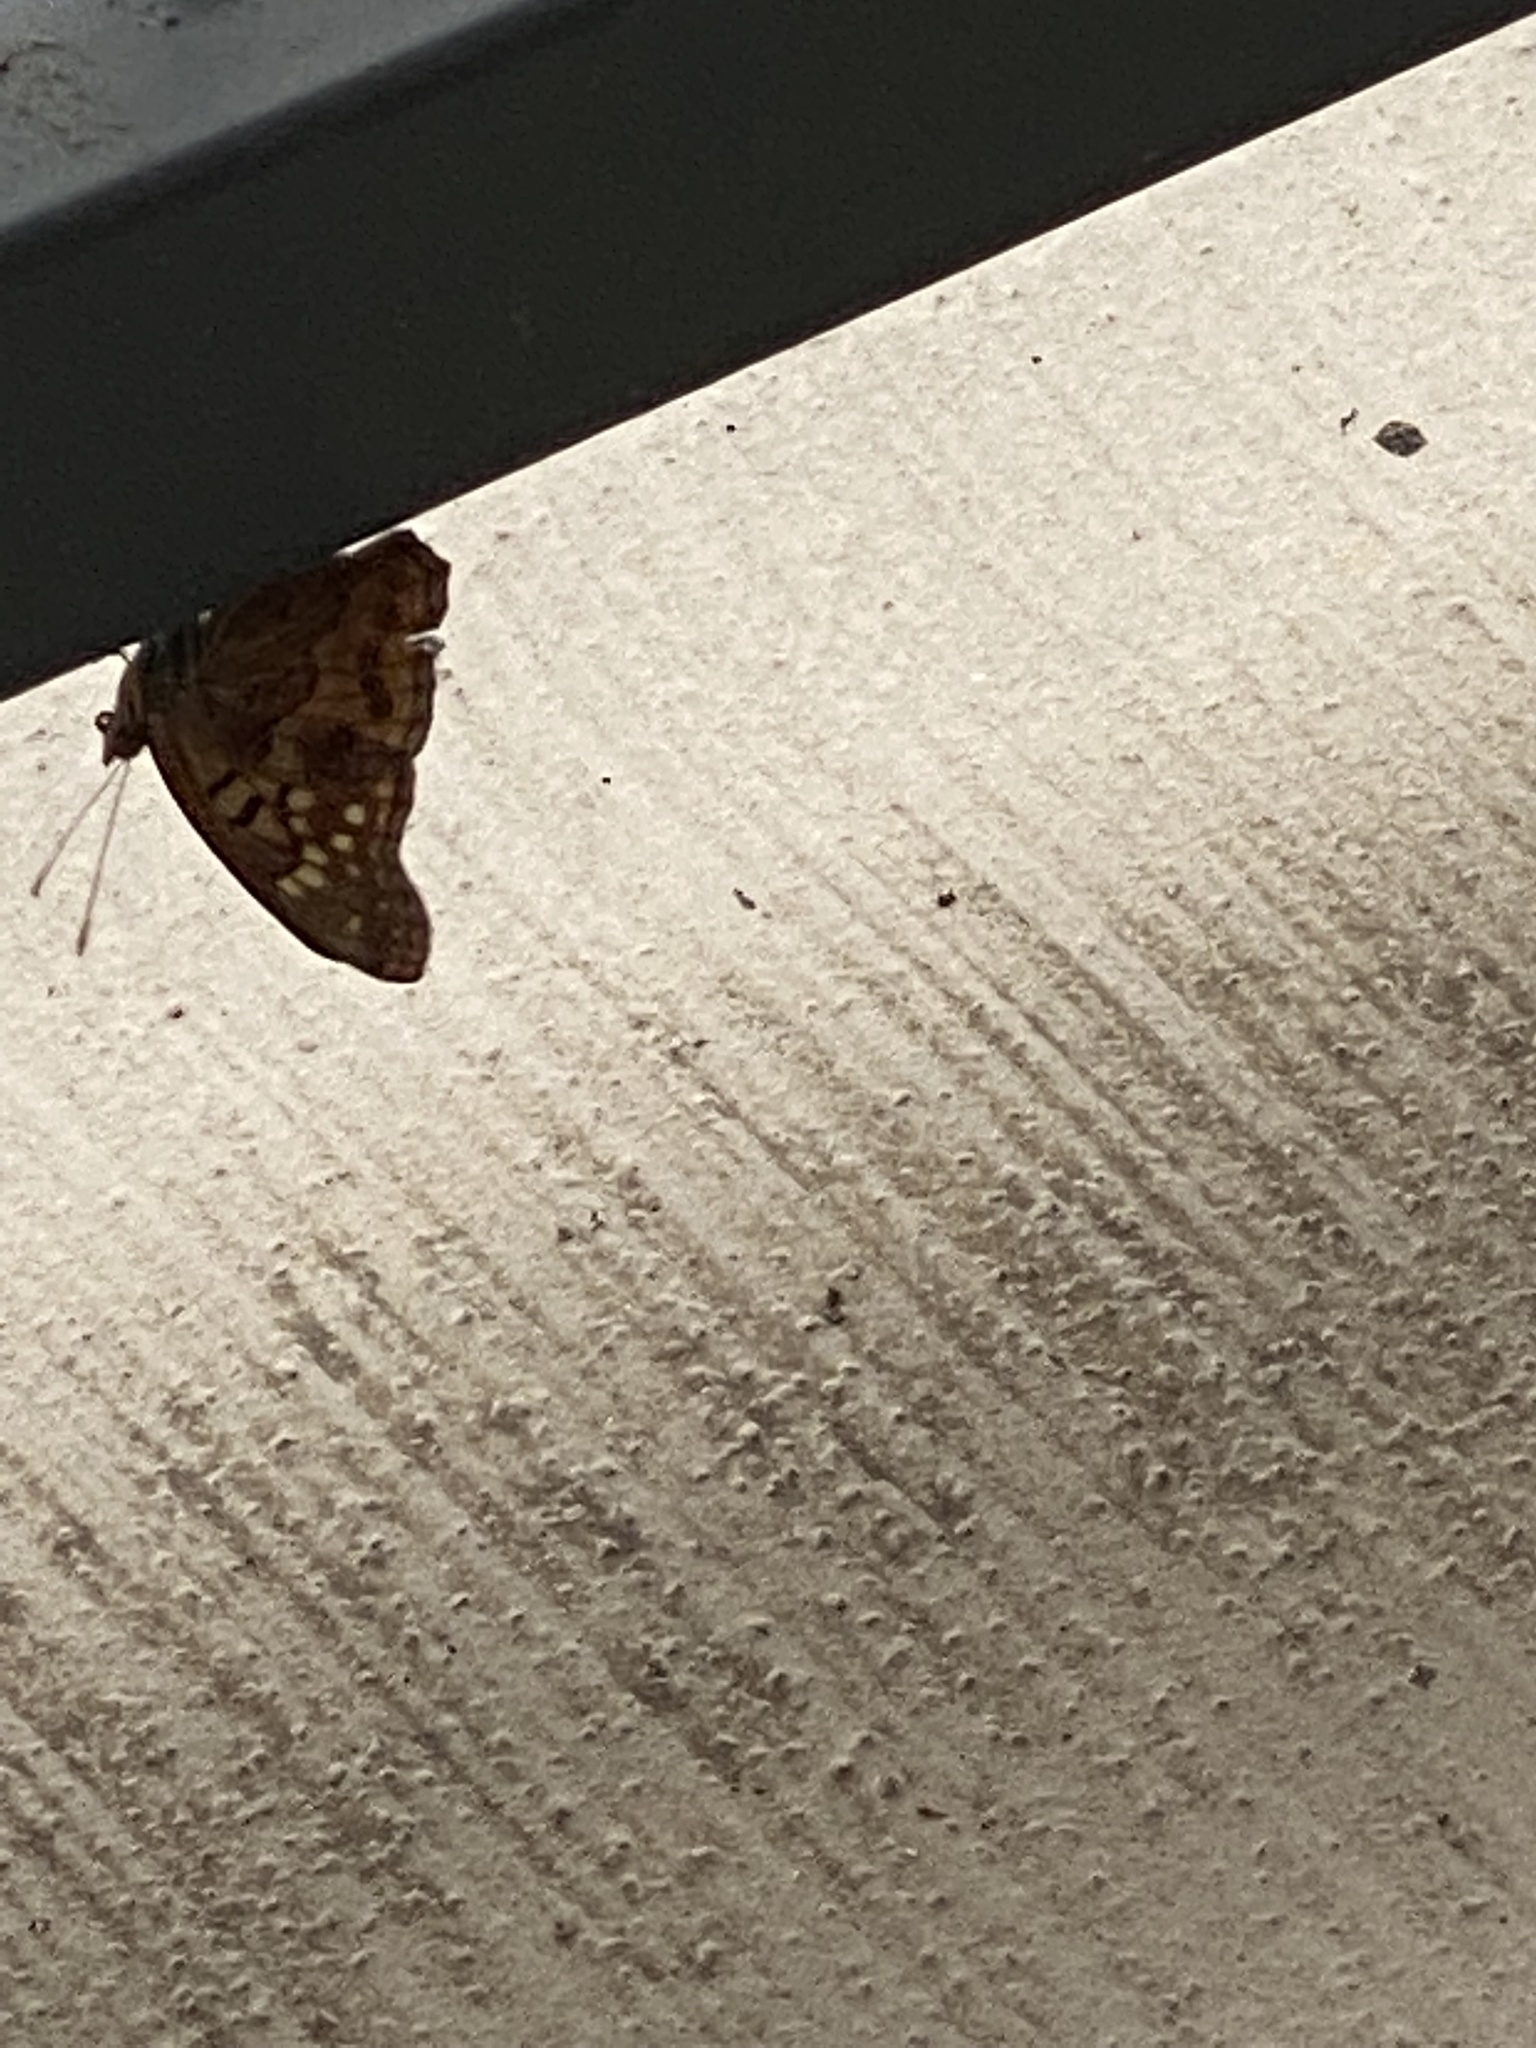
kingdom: Animalia
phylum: Arthropoda
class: Insecta
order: Lepidoptera
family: Nymphalidae
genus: Asterocampa
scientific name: Asterocampa clyton
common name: Tawny emperor
